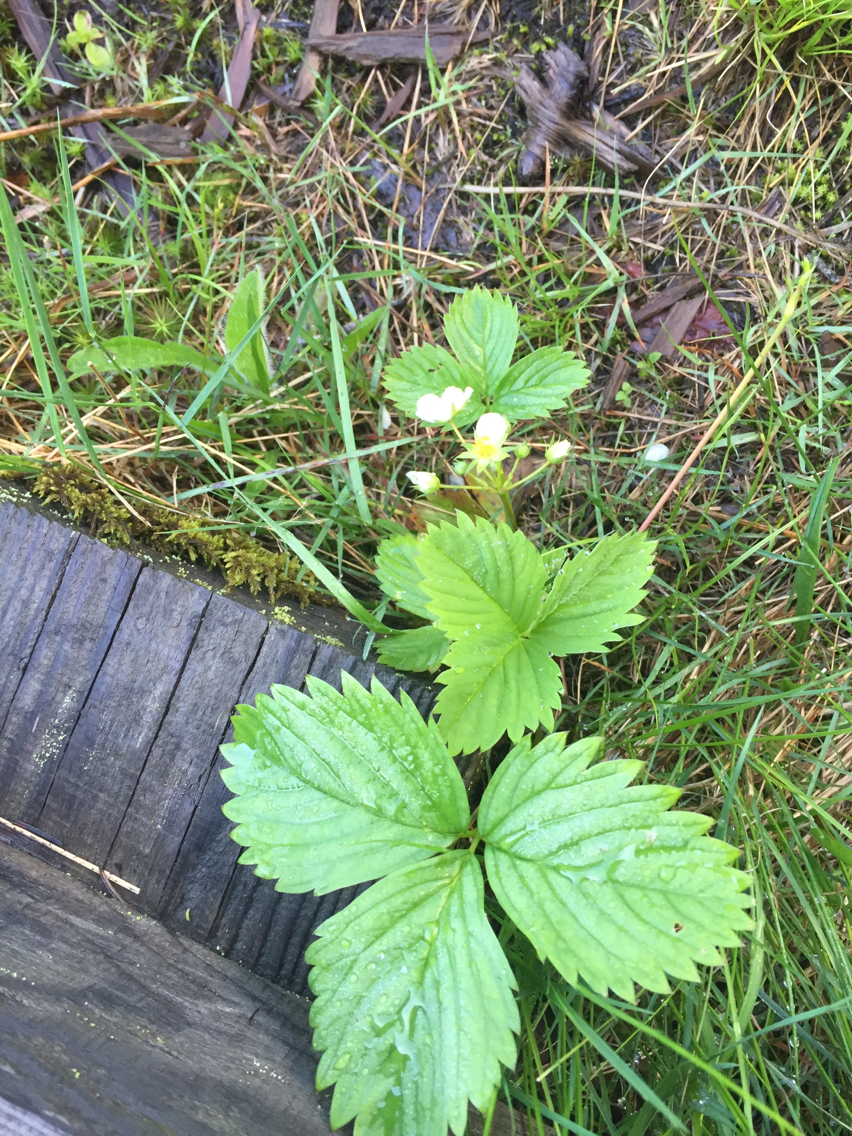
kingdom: Plantae
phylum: Tracheophyta
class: Magnoliopsida
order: Rosales
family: Rosaceae
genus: Fragaria
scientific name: Fragaria vesca
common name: Wild strawberry
